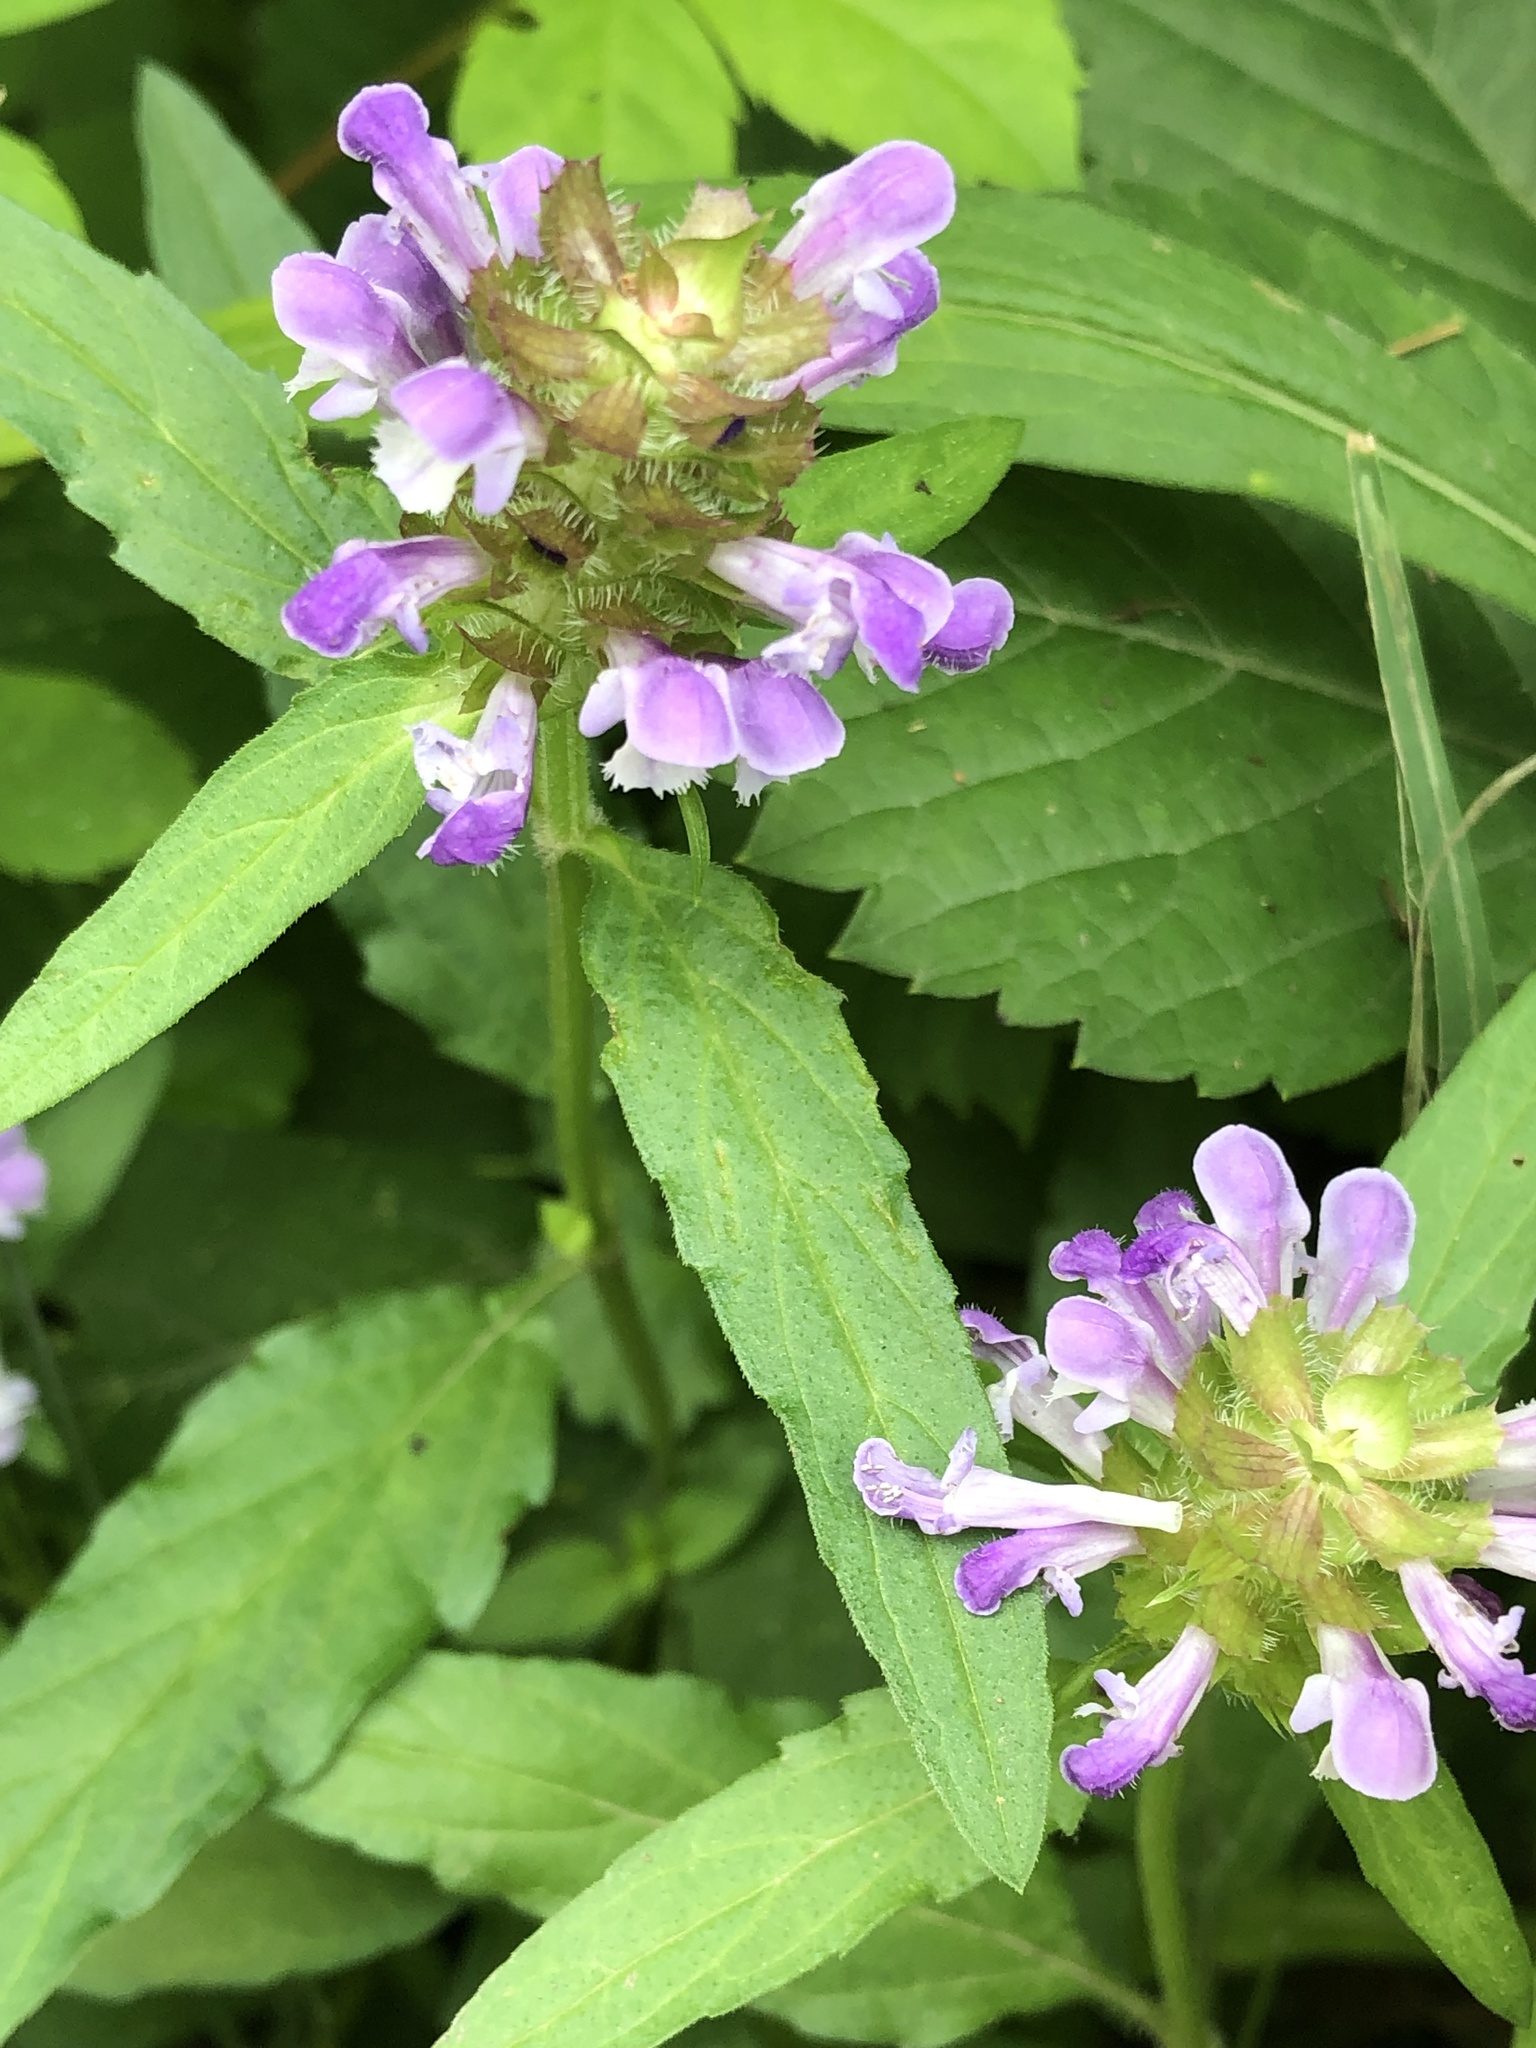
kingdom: Plantae
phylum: Tracheophyta
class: Magnoliopsida
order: Lamiales
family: Lamiaceae
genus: Prunella
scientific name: Prunella vulgaris
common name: Heal-all
